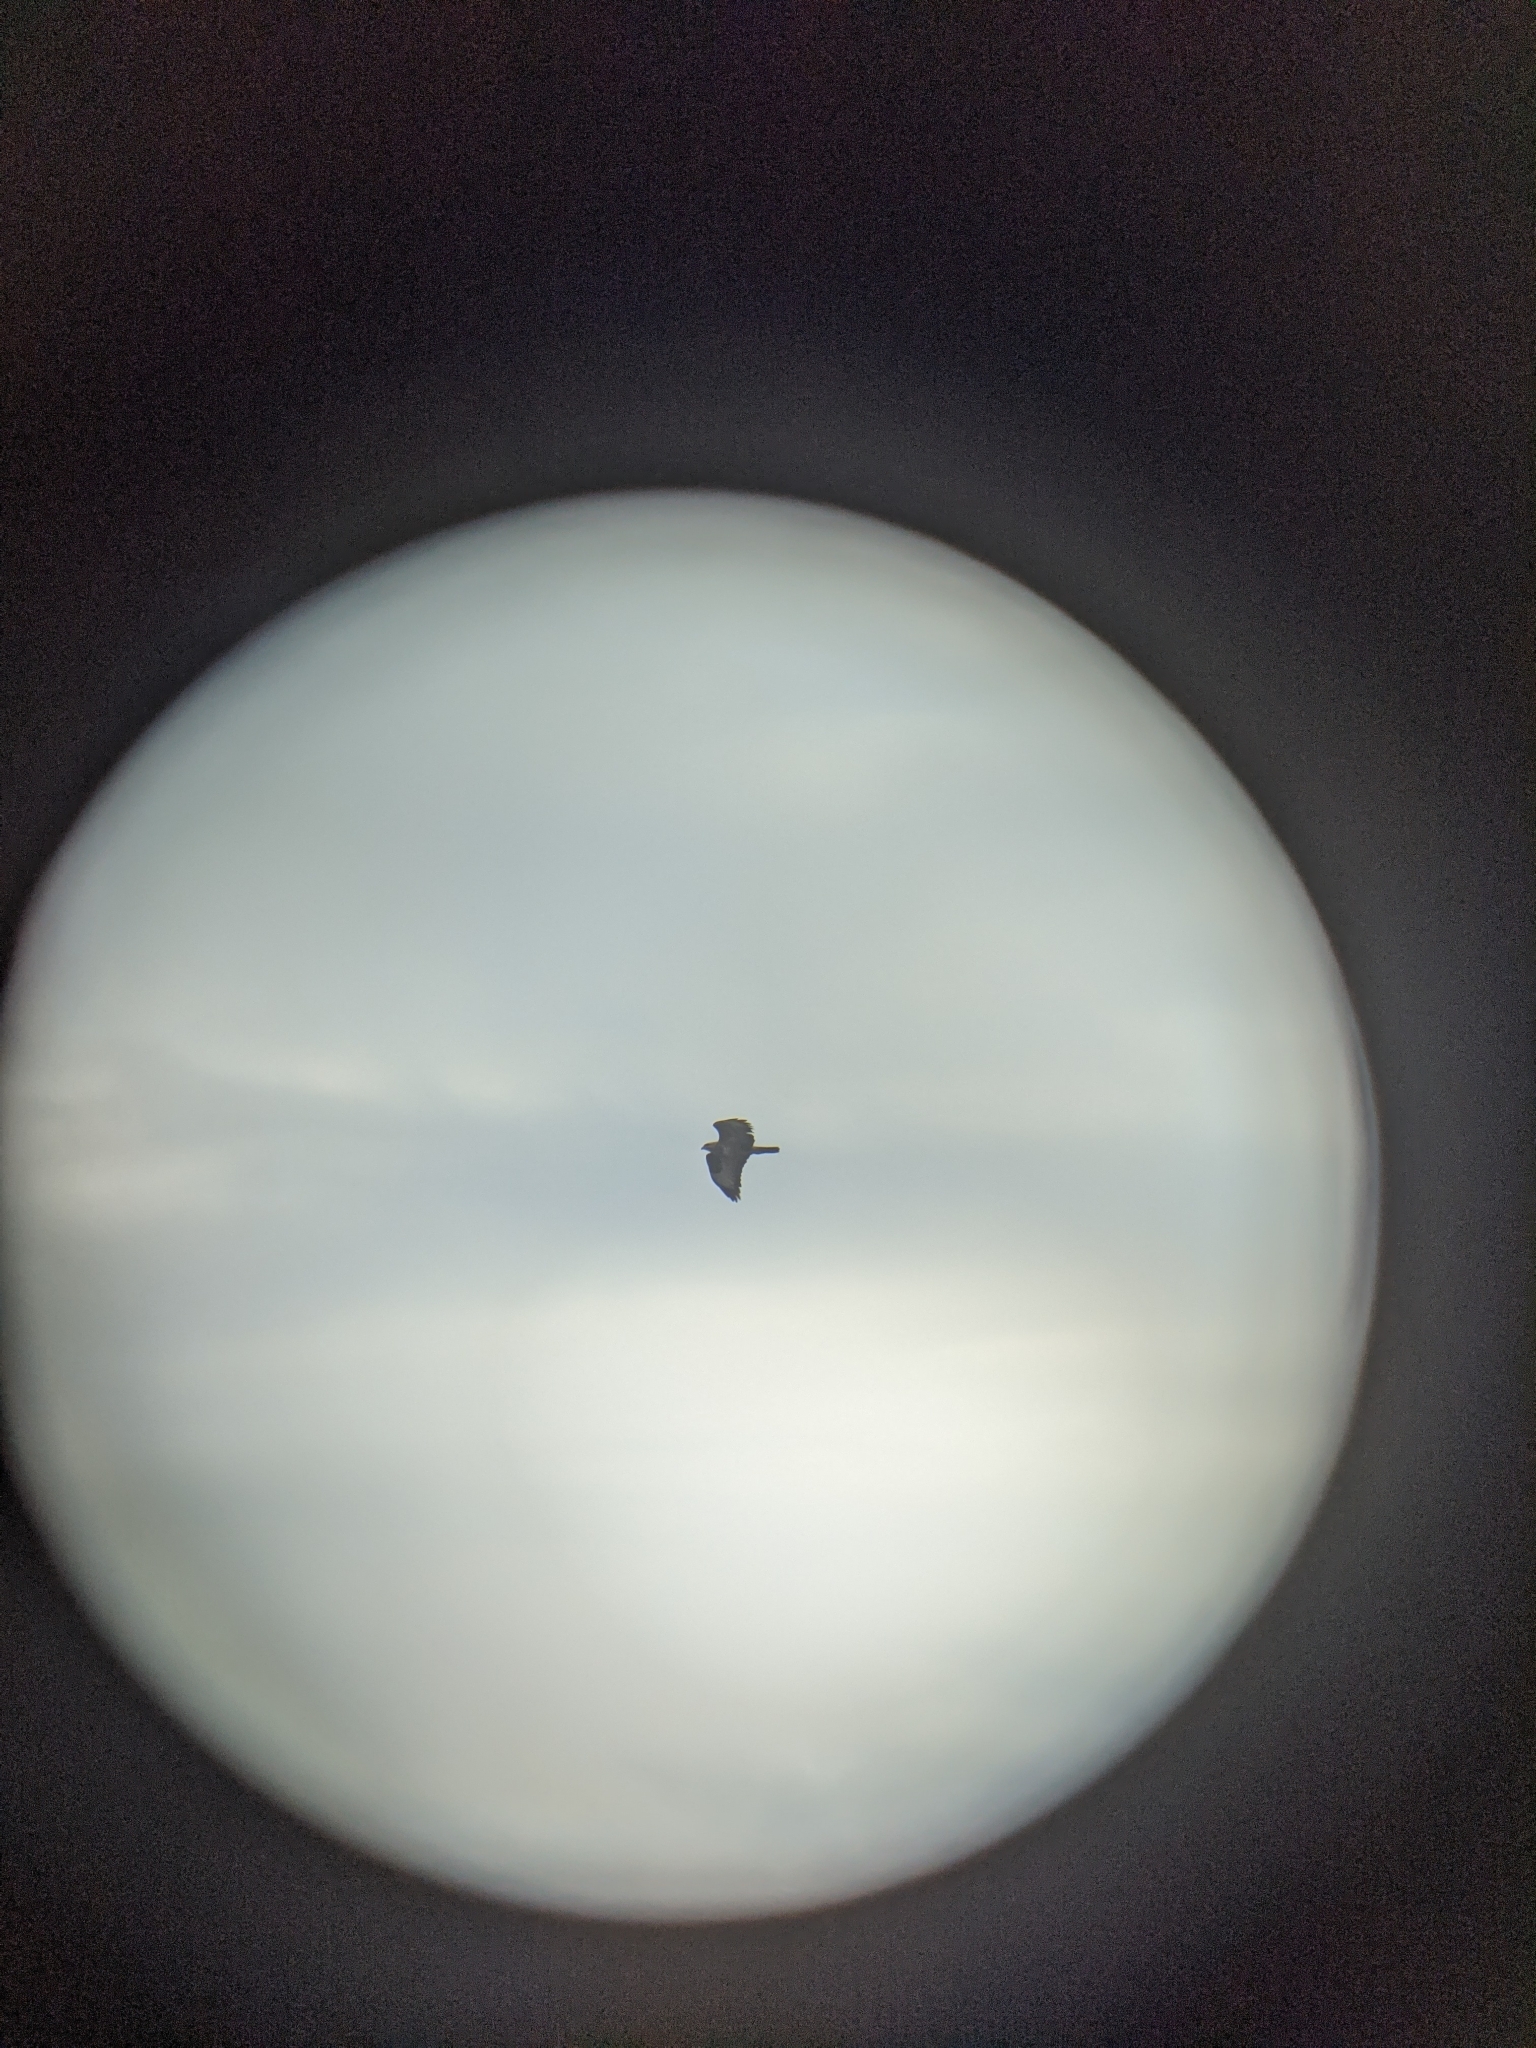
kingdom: Animalia
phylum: Chordata
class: Aves
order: Accipitriformes
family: Accipitridae
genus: Buteo
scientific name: Buteo buteo
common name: Common buzzard
